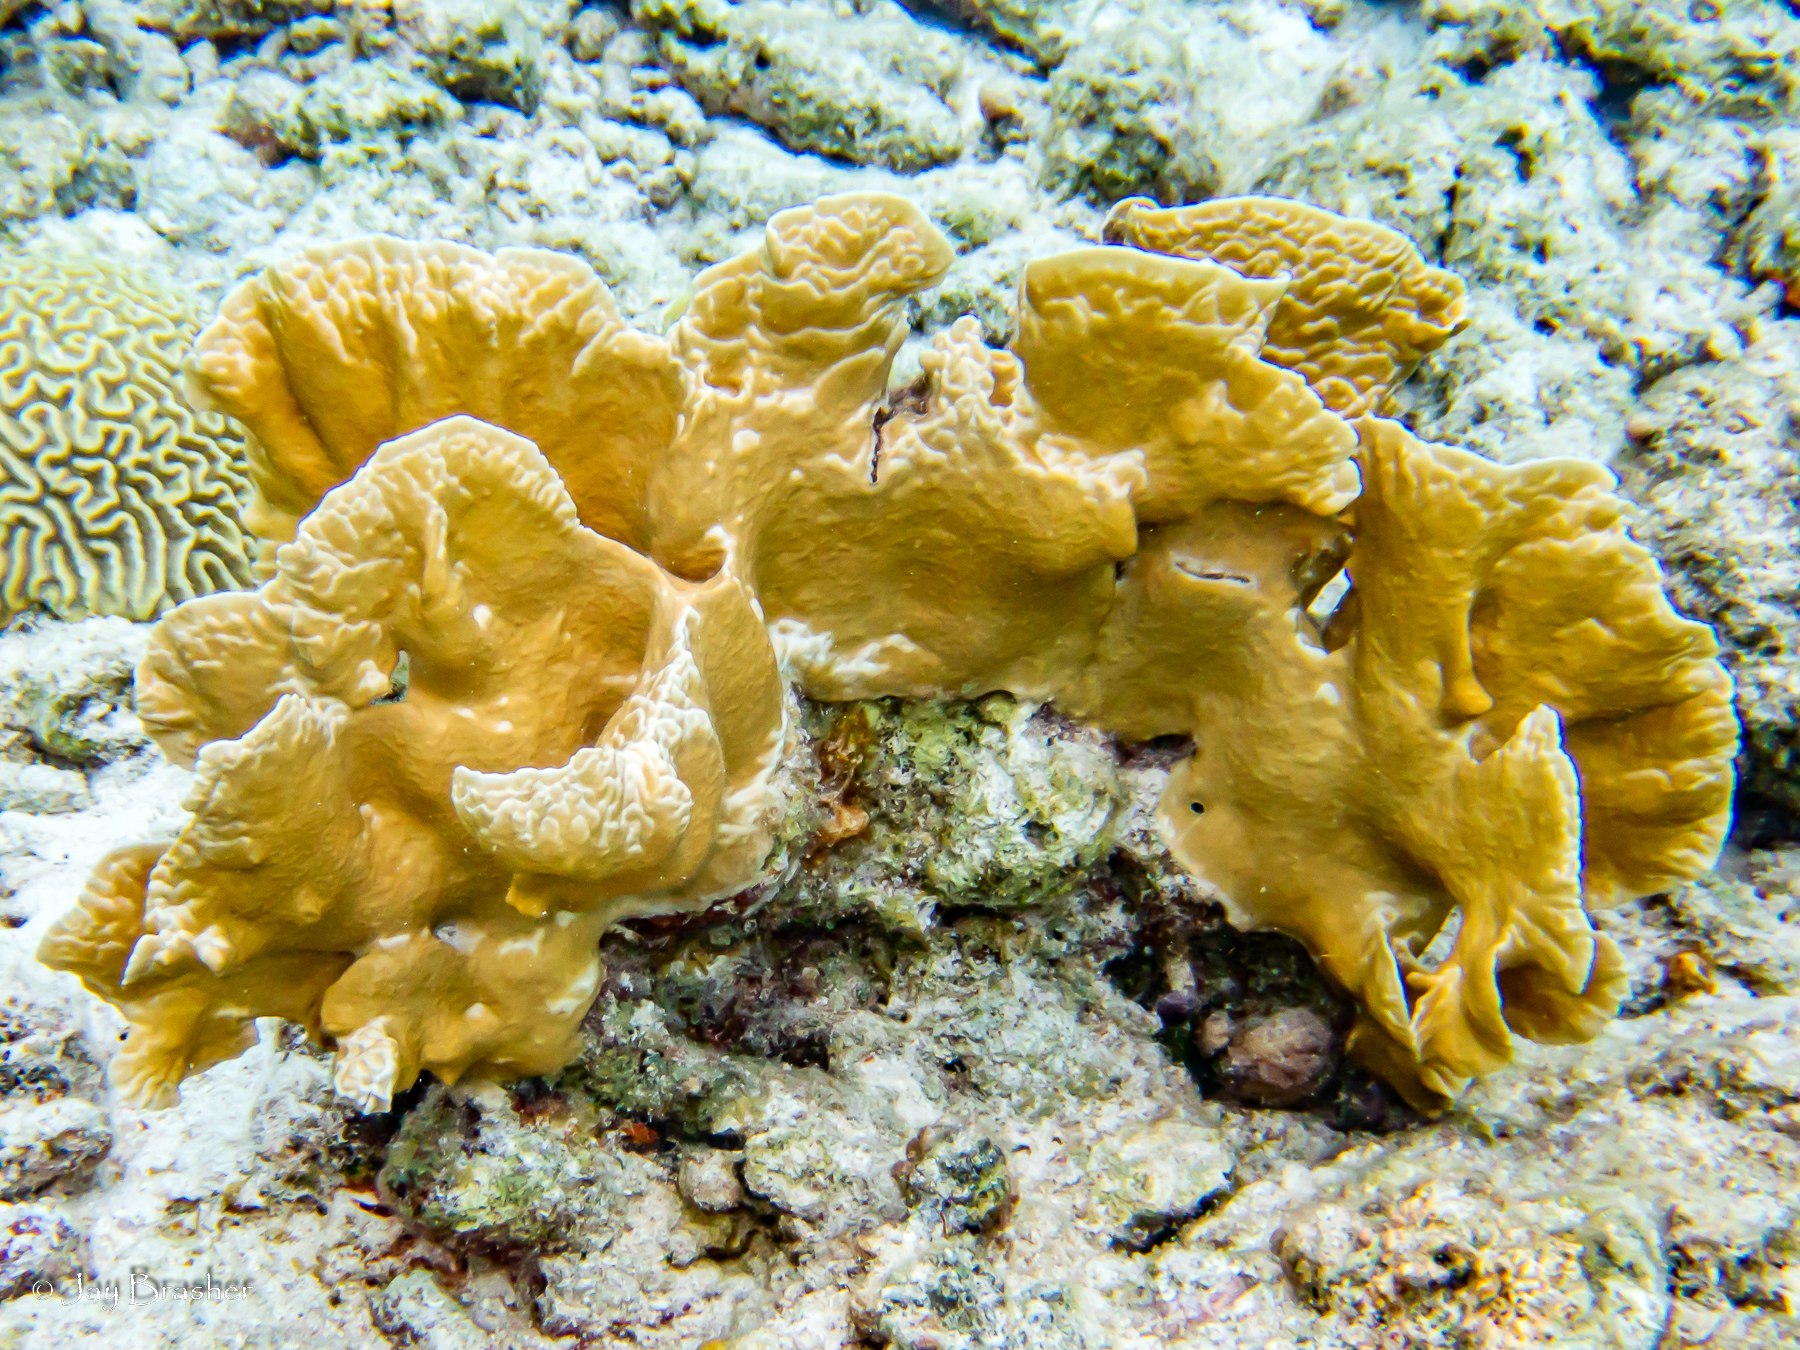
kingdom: Animalia
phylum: Cnidaria
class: Hydrozoa
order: Anthoathecata
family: Milleporidae
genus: Millepora
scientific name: Millepora complanata
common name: Bladed fire coral
